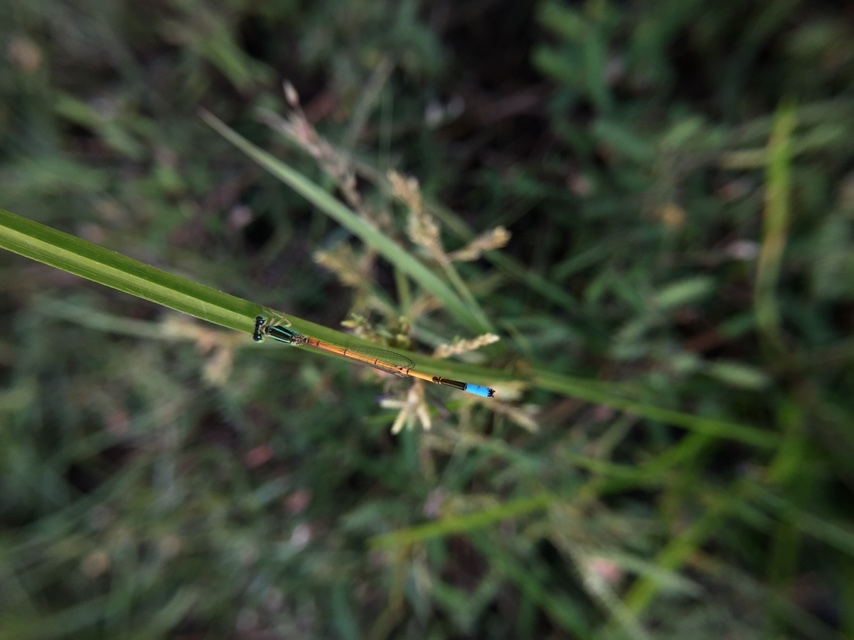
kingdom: Animalia
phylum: Arthropoda
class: Insecta
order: Odonata
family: Coenagrionidae
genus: Ischnura
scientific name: Ischnura rubilio
